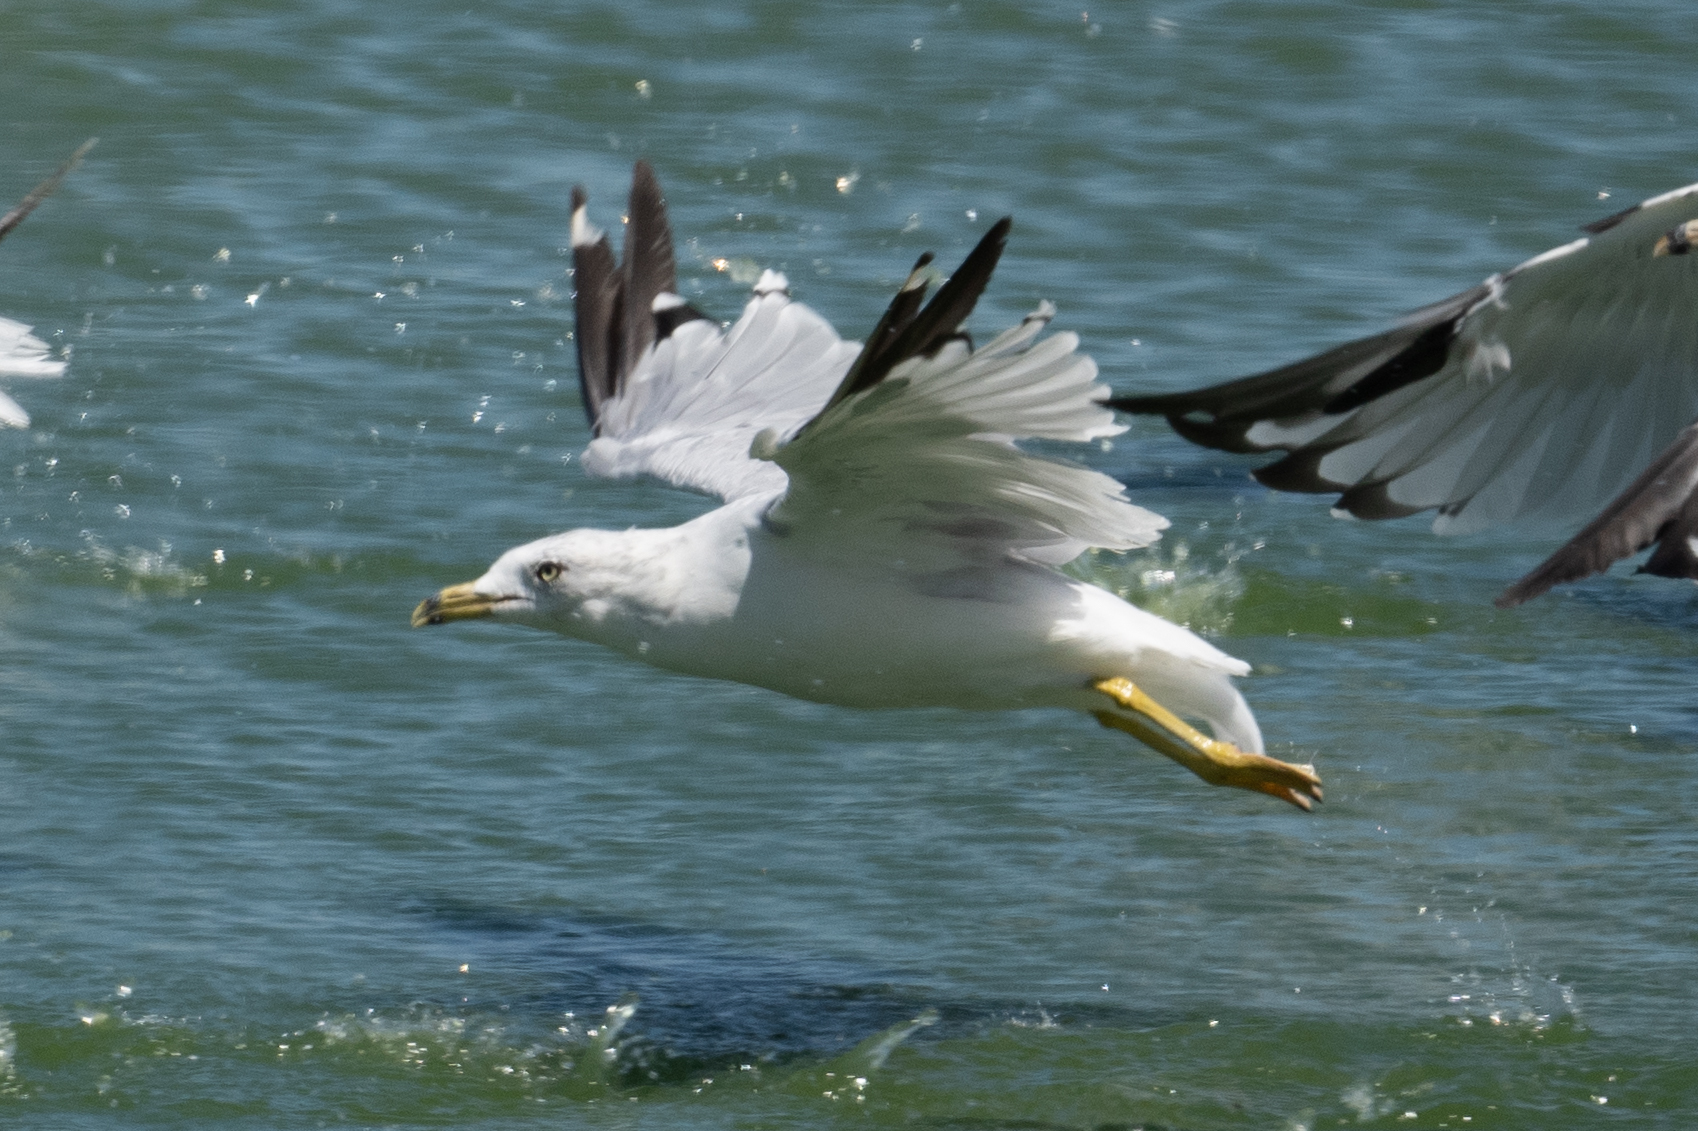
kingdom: Animalia
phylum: Chordata
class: Aves
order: Charadriiformes
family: Laridae
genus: Larus
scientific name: Larus delawarensis
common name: Ring-billed gull
